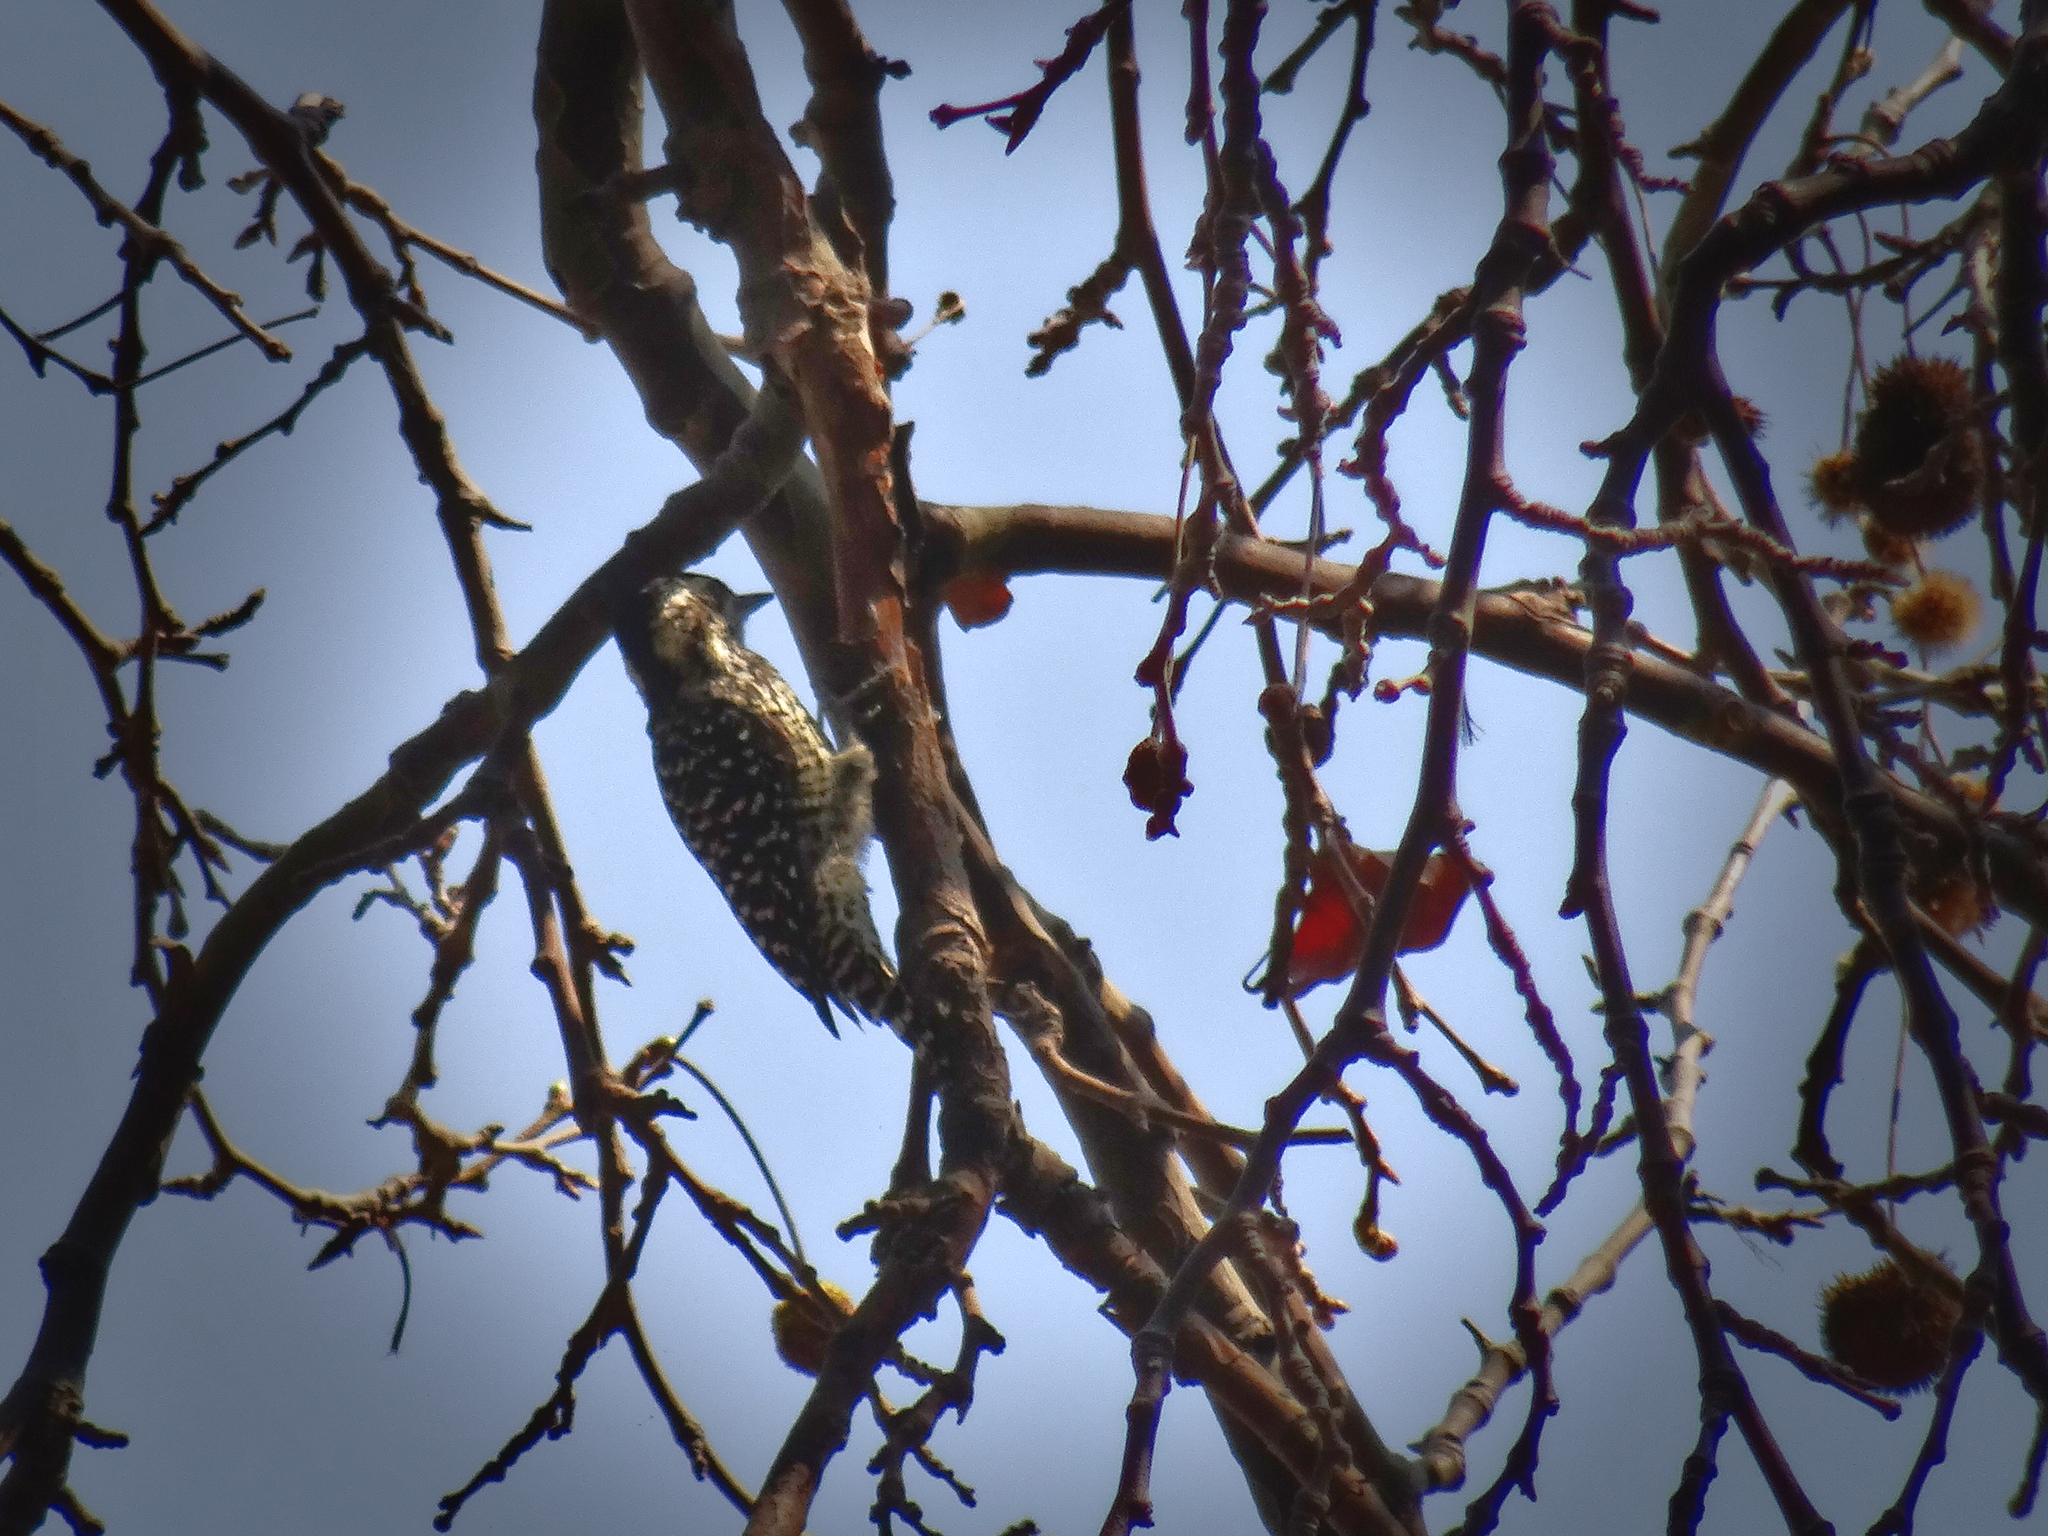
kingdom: Animalia
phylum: Chordata
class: Aves
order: Piciformes
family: Picidae
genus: Veniliornis
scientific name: Veniliornis lignarius
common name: Striped woodpecker
